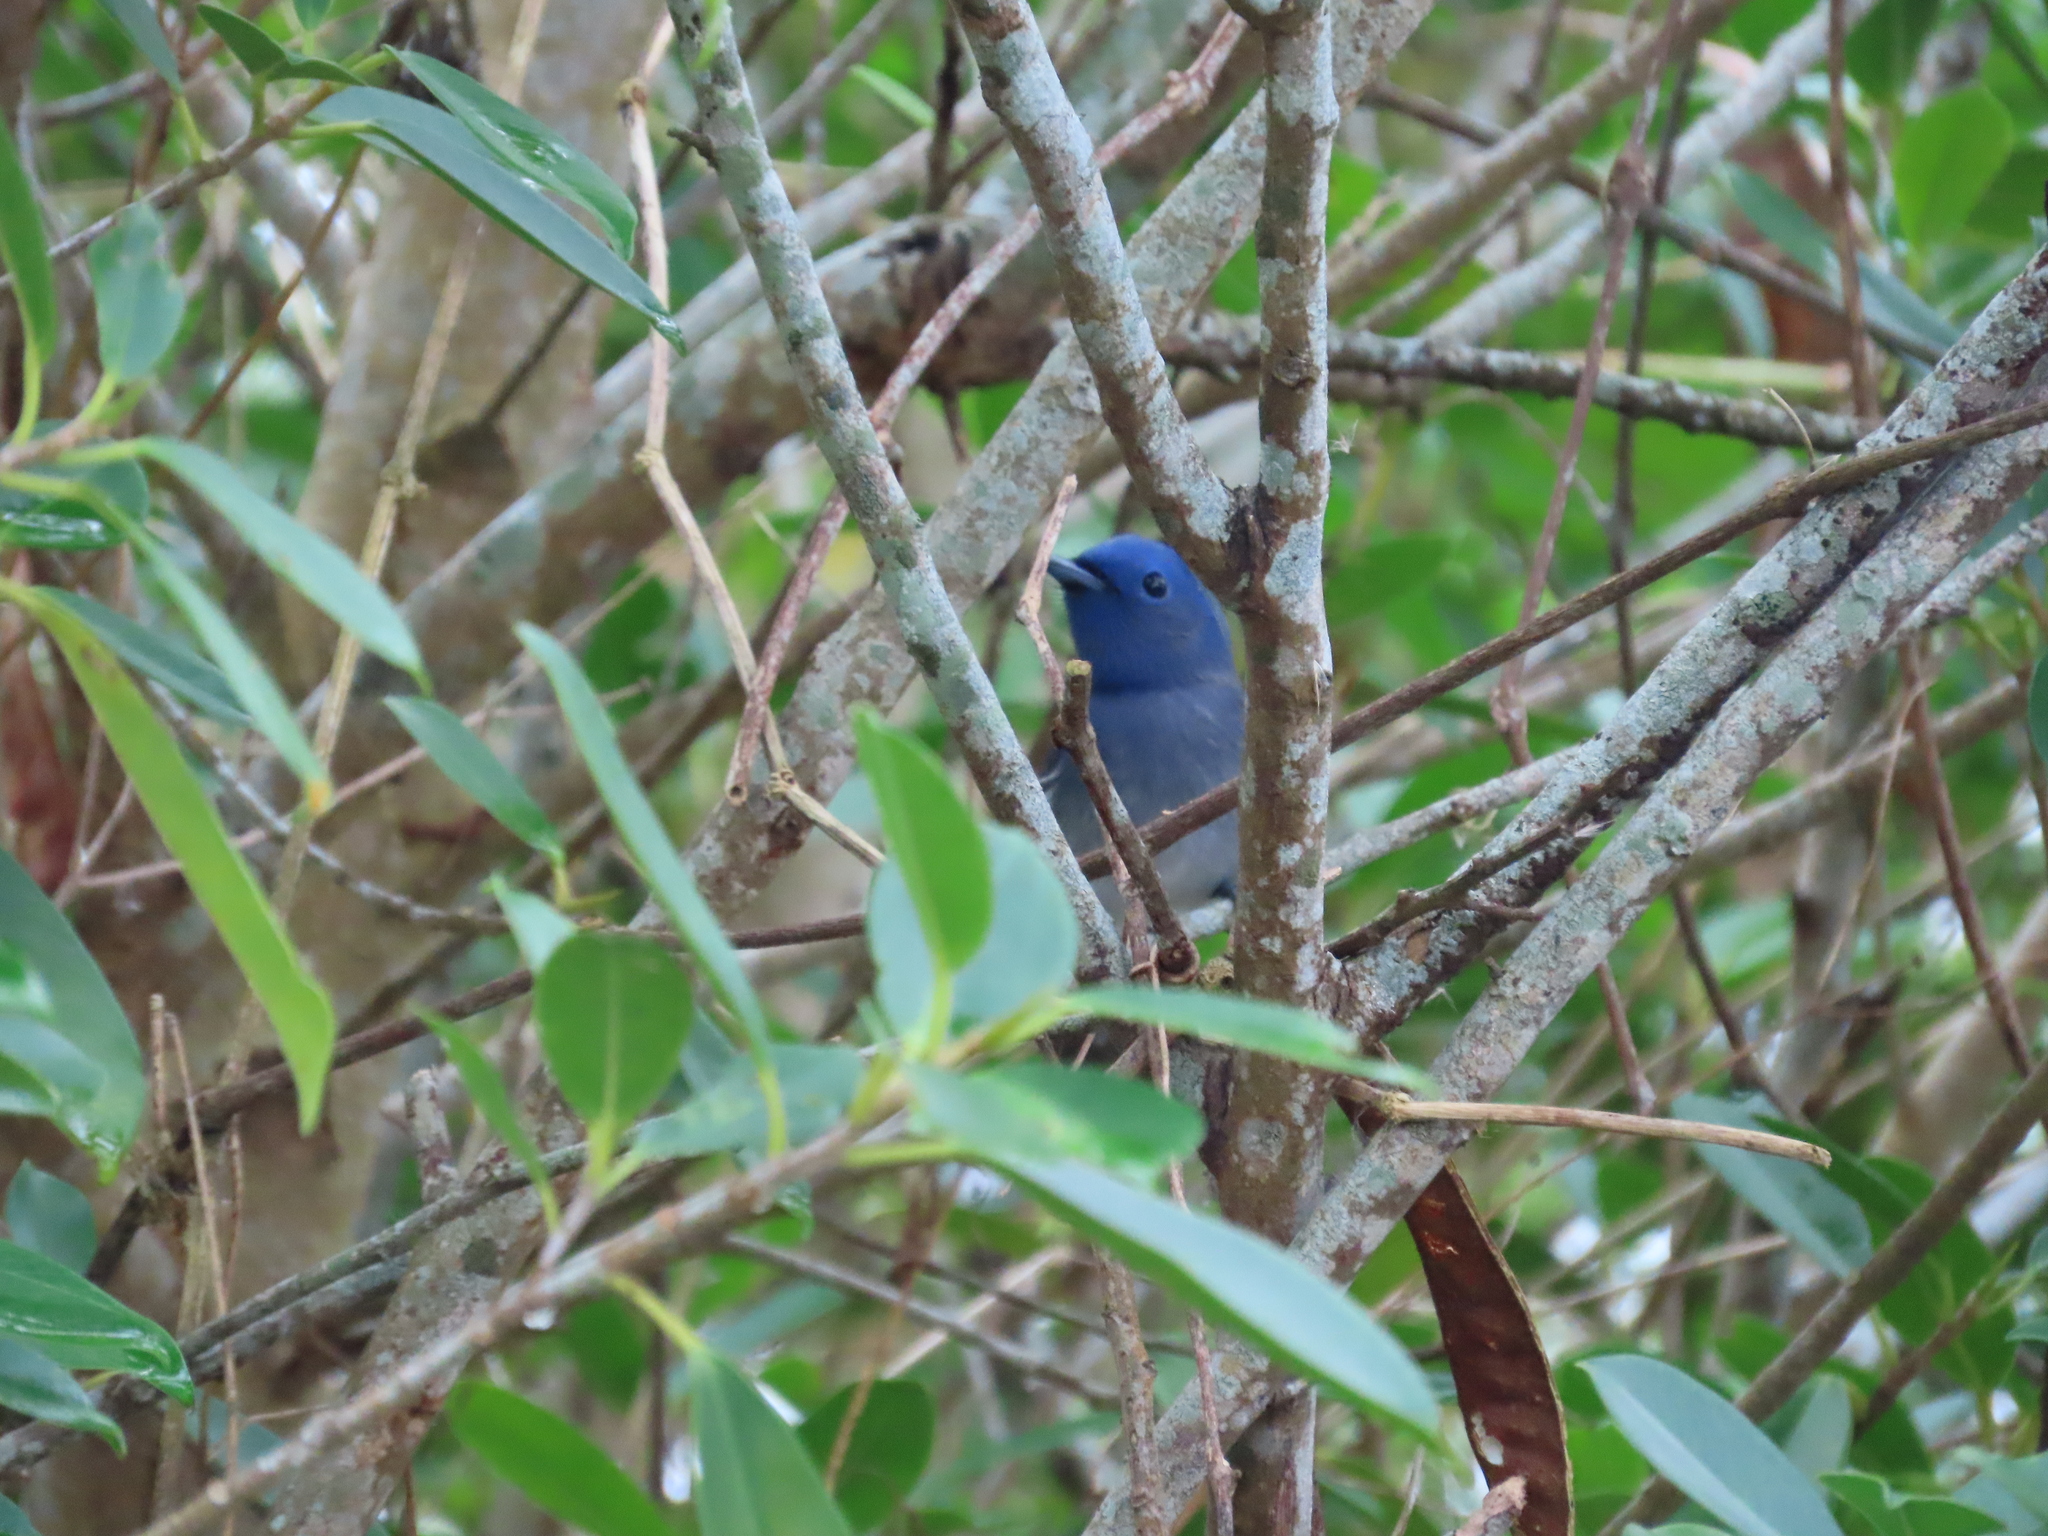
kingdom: Animalia
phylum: Chordata
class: Aves
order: Passeriformes
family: Monarchidae
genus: Hypothymis
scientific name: Hypothymis azurea
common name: Black-naped monarch
